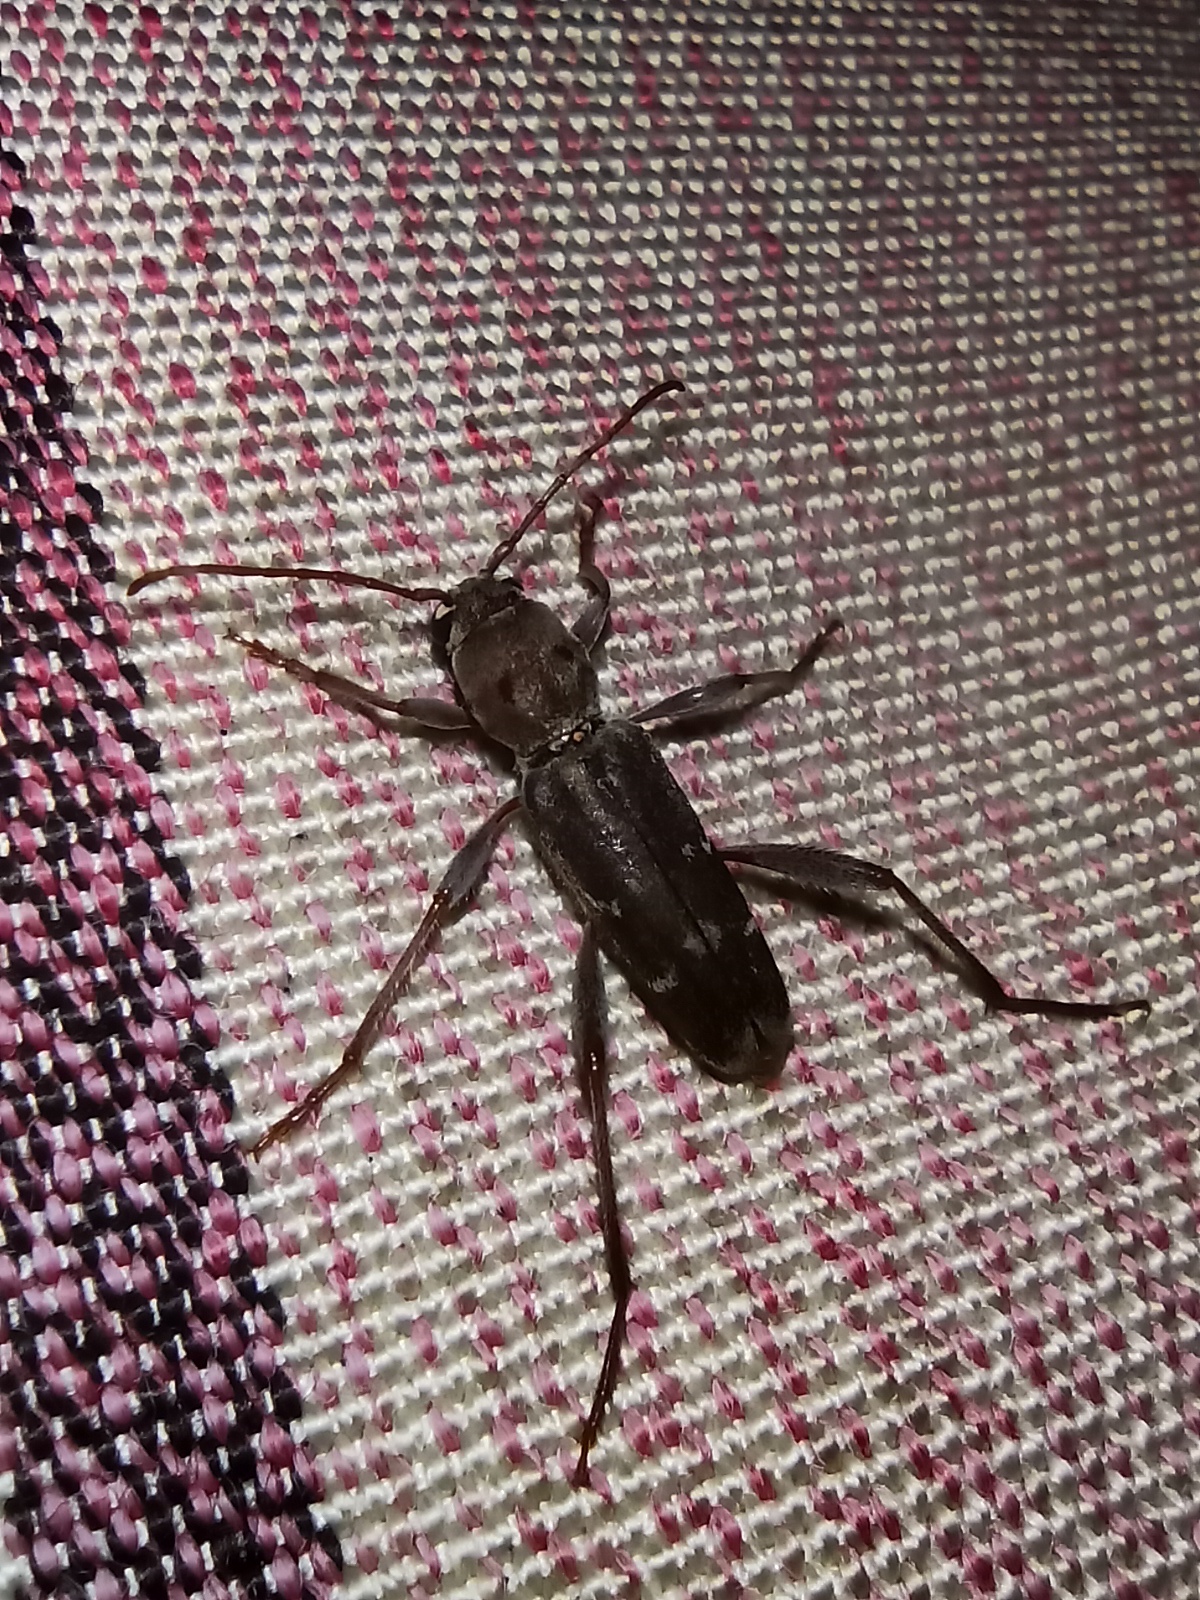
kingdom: Animalia
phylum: Arthropoda
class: Insecta
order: Coleoptera
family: Cerambycidae
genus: Xylotrechus
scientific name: Xylotrechus smei
